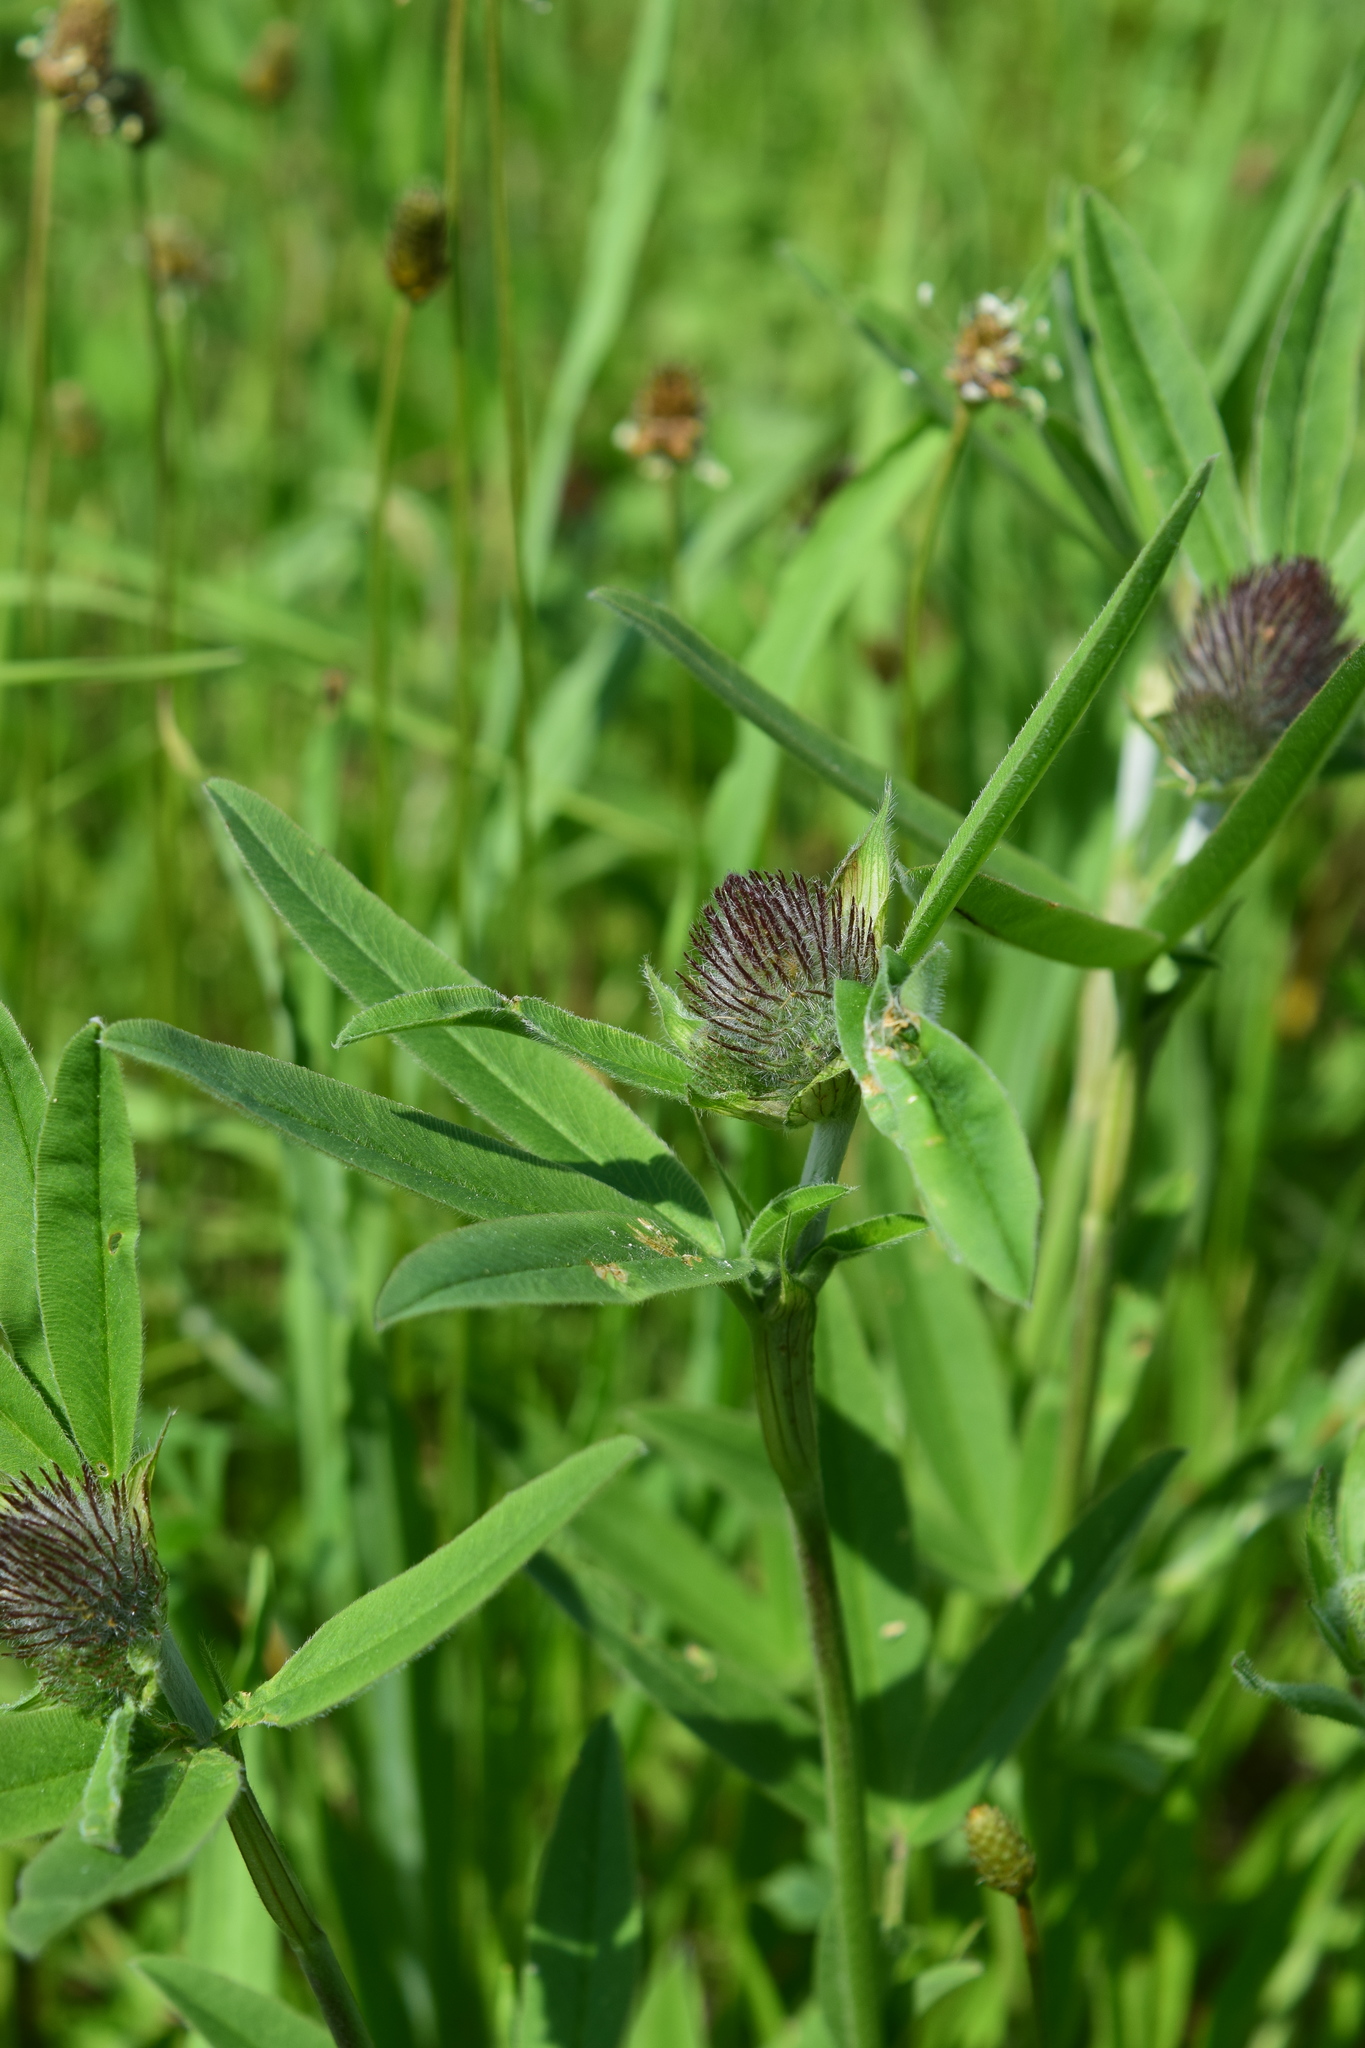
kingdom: Plantae
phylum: Tracheophyta
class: Magnoliopsida
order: Fabales
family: Fabaceae
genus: Trifolium
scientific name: Trifolium alpestre
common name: Owl-head clover
